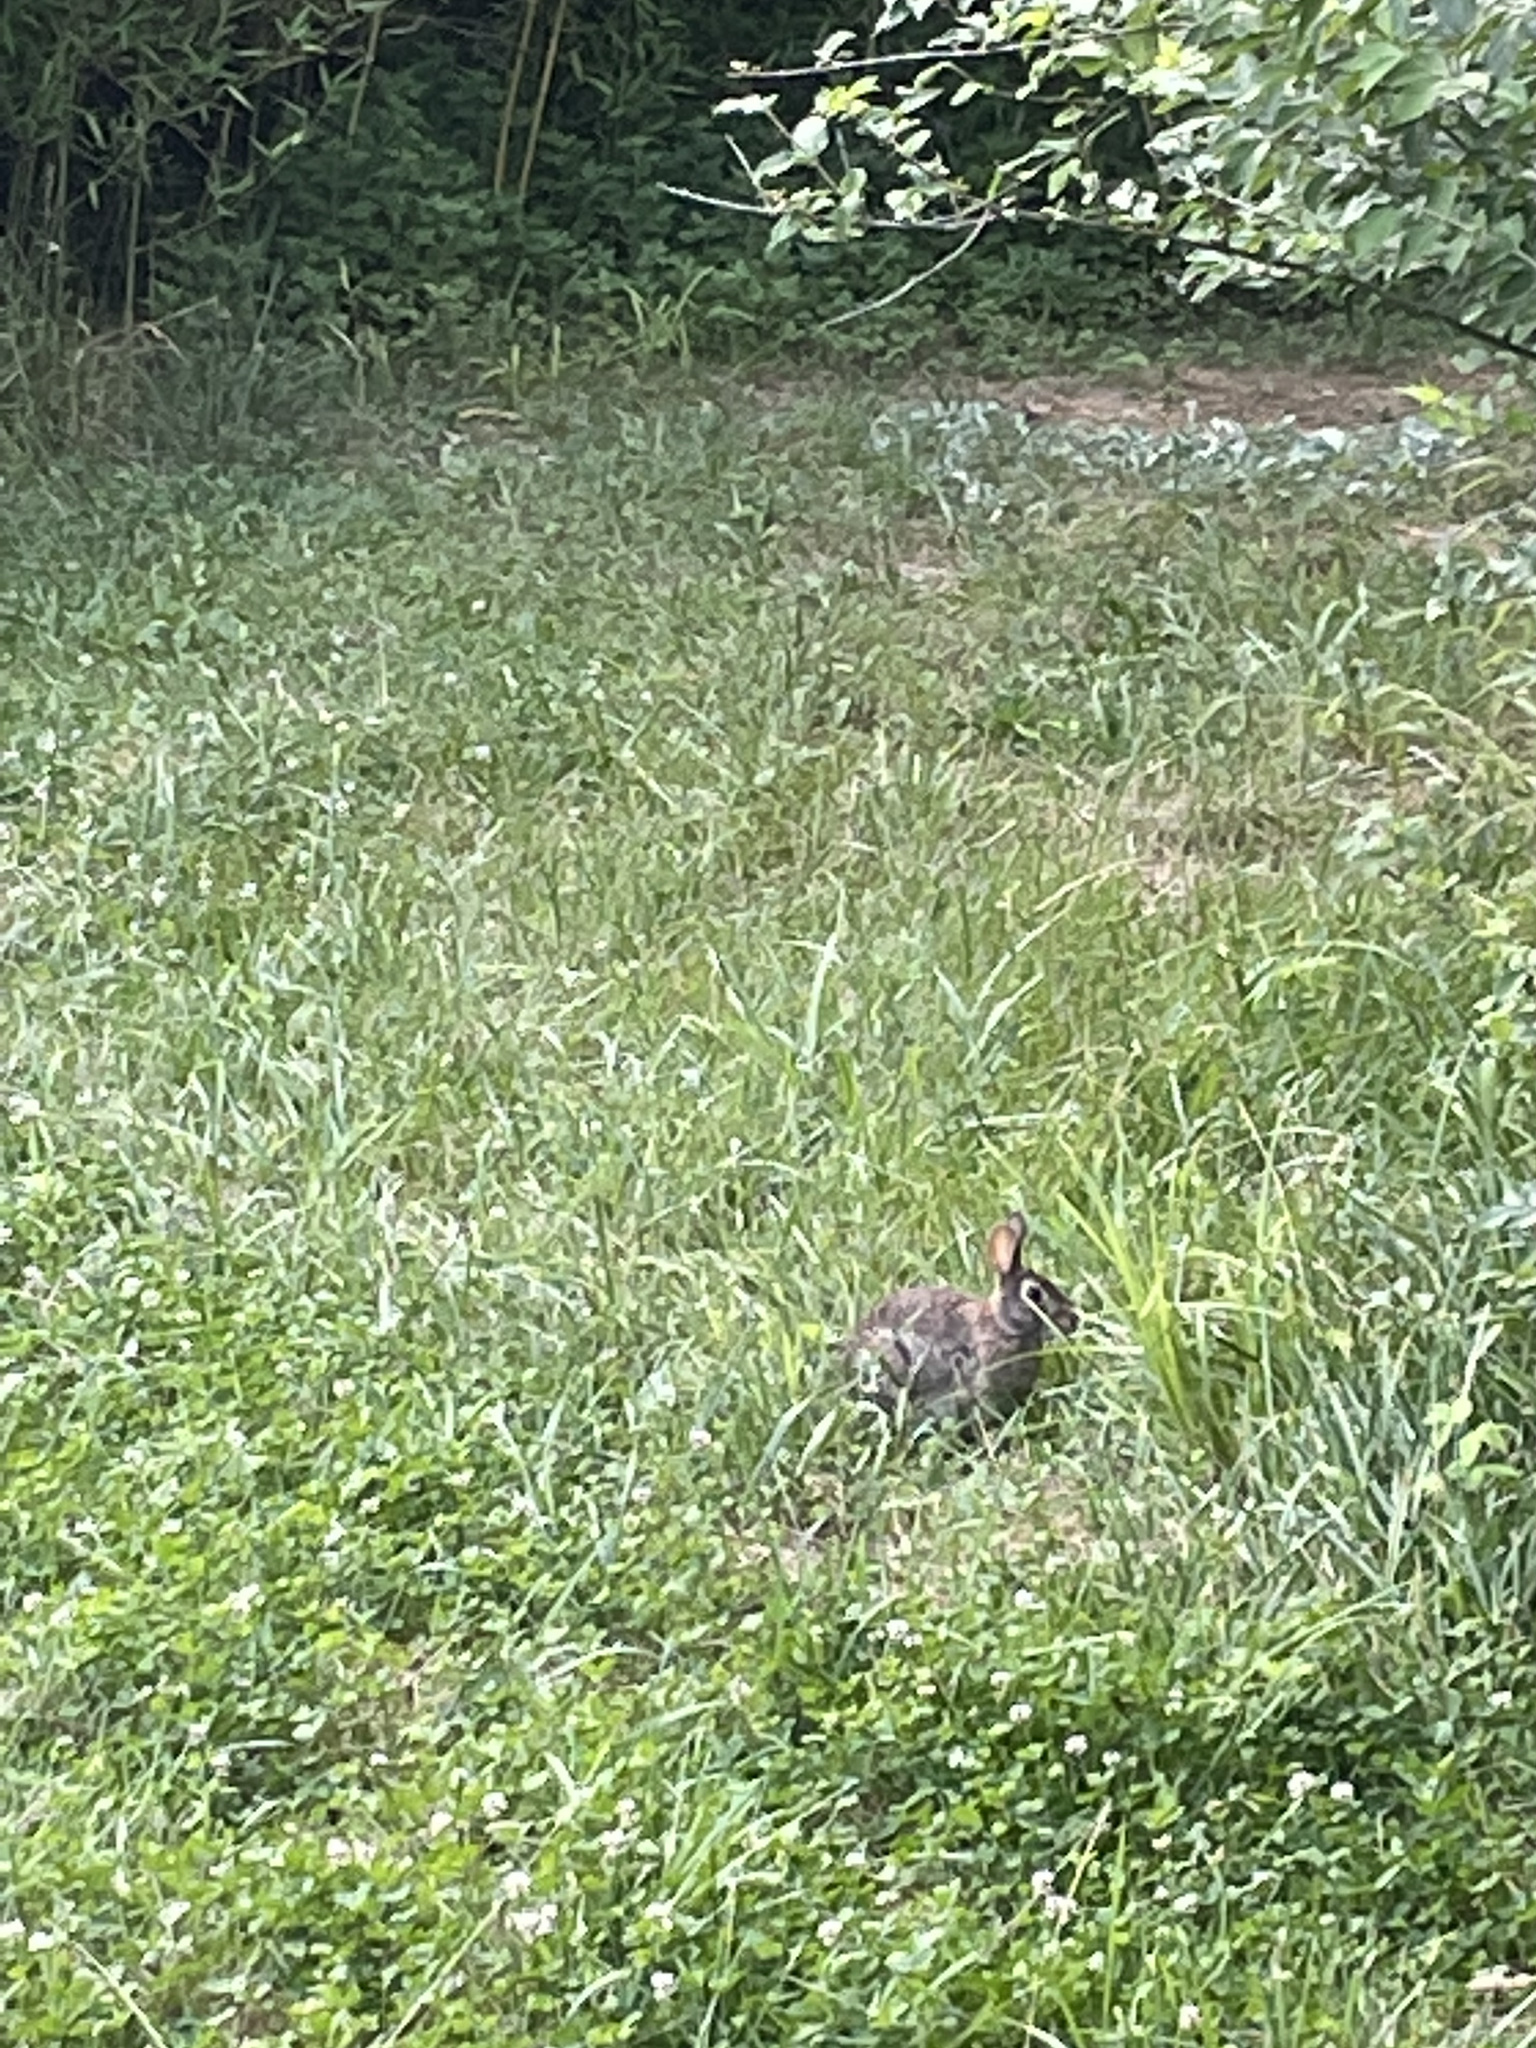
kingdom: Animalia
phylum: Chordata
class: Mammalia
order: Lagomorpha
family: Leporidae
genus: Sylvilagus
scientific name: Sylvilagus floridanus
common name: Eastern cottontail
